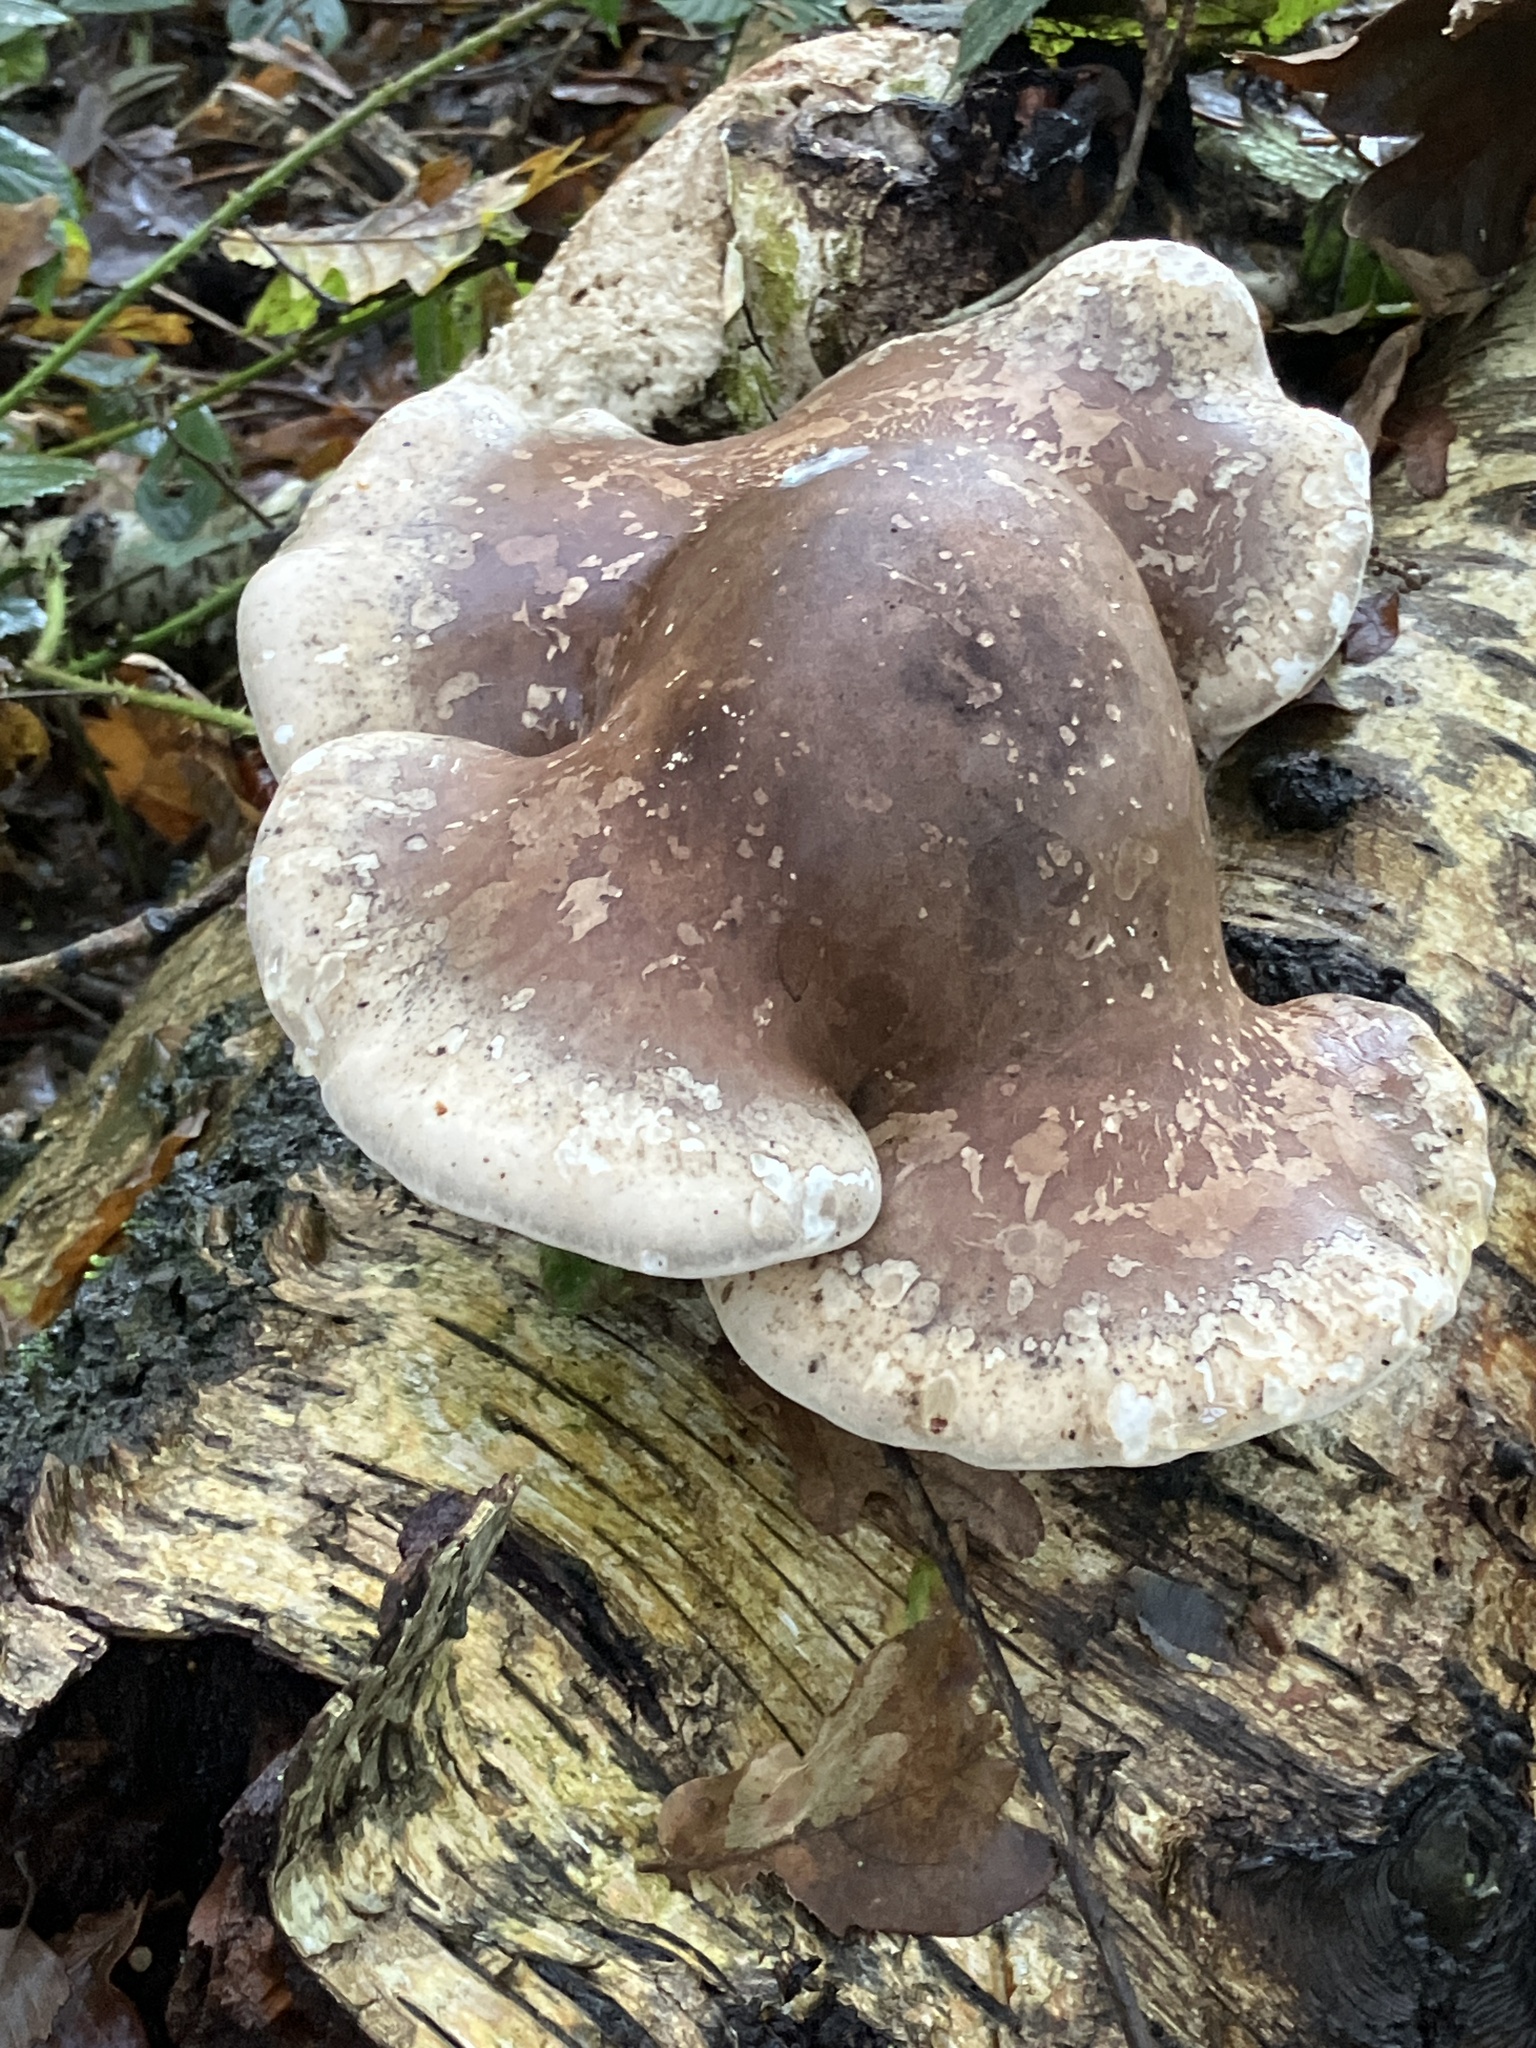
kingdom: Fungi
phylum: Basidiomycota
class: Agaricomycetes
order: Polyporales
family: Fomitopsidaceae
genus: Fomitopsis
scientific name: Fomitopsis betulina
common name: Birch polypore
